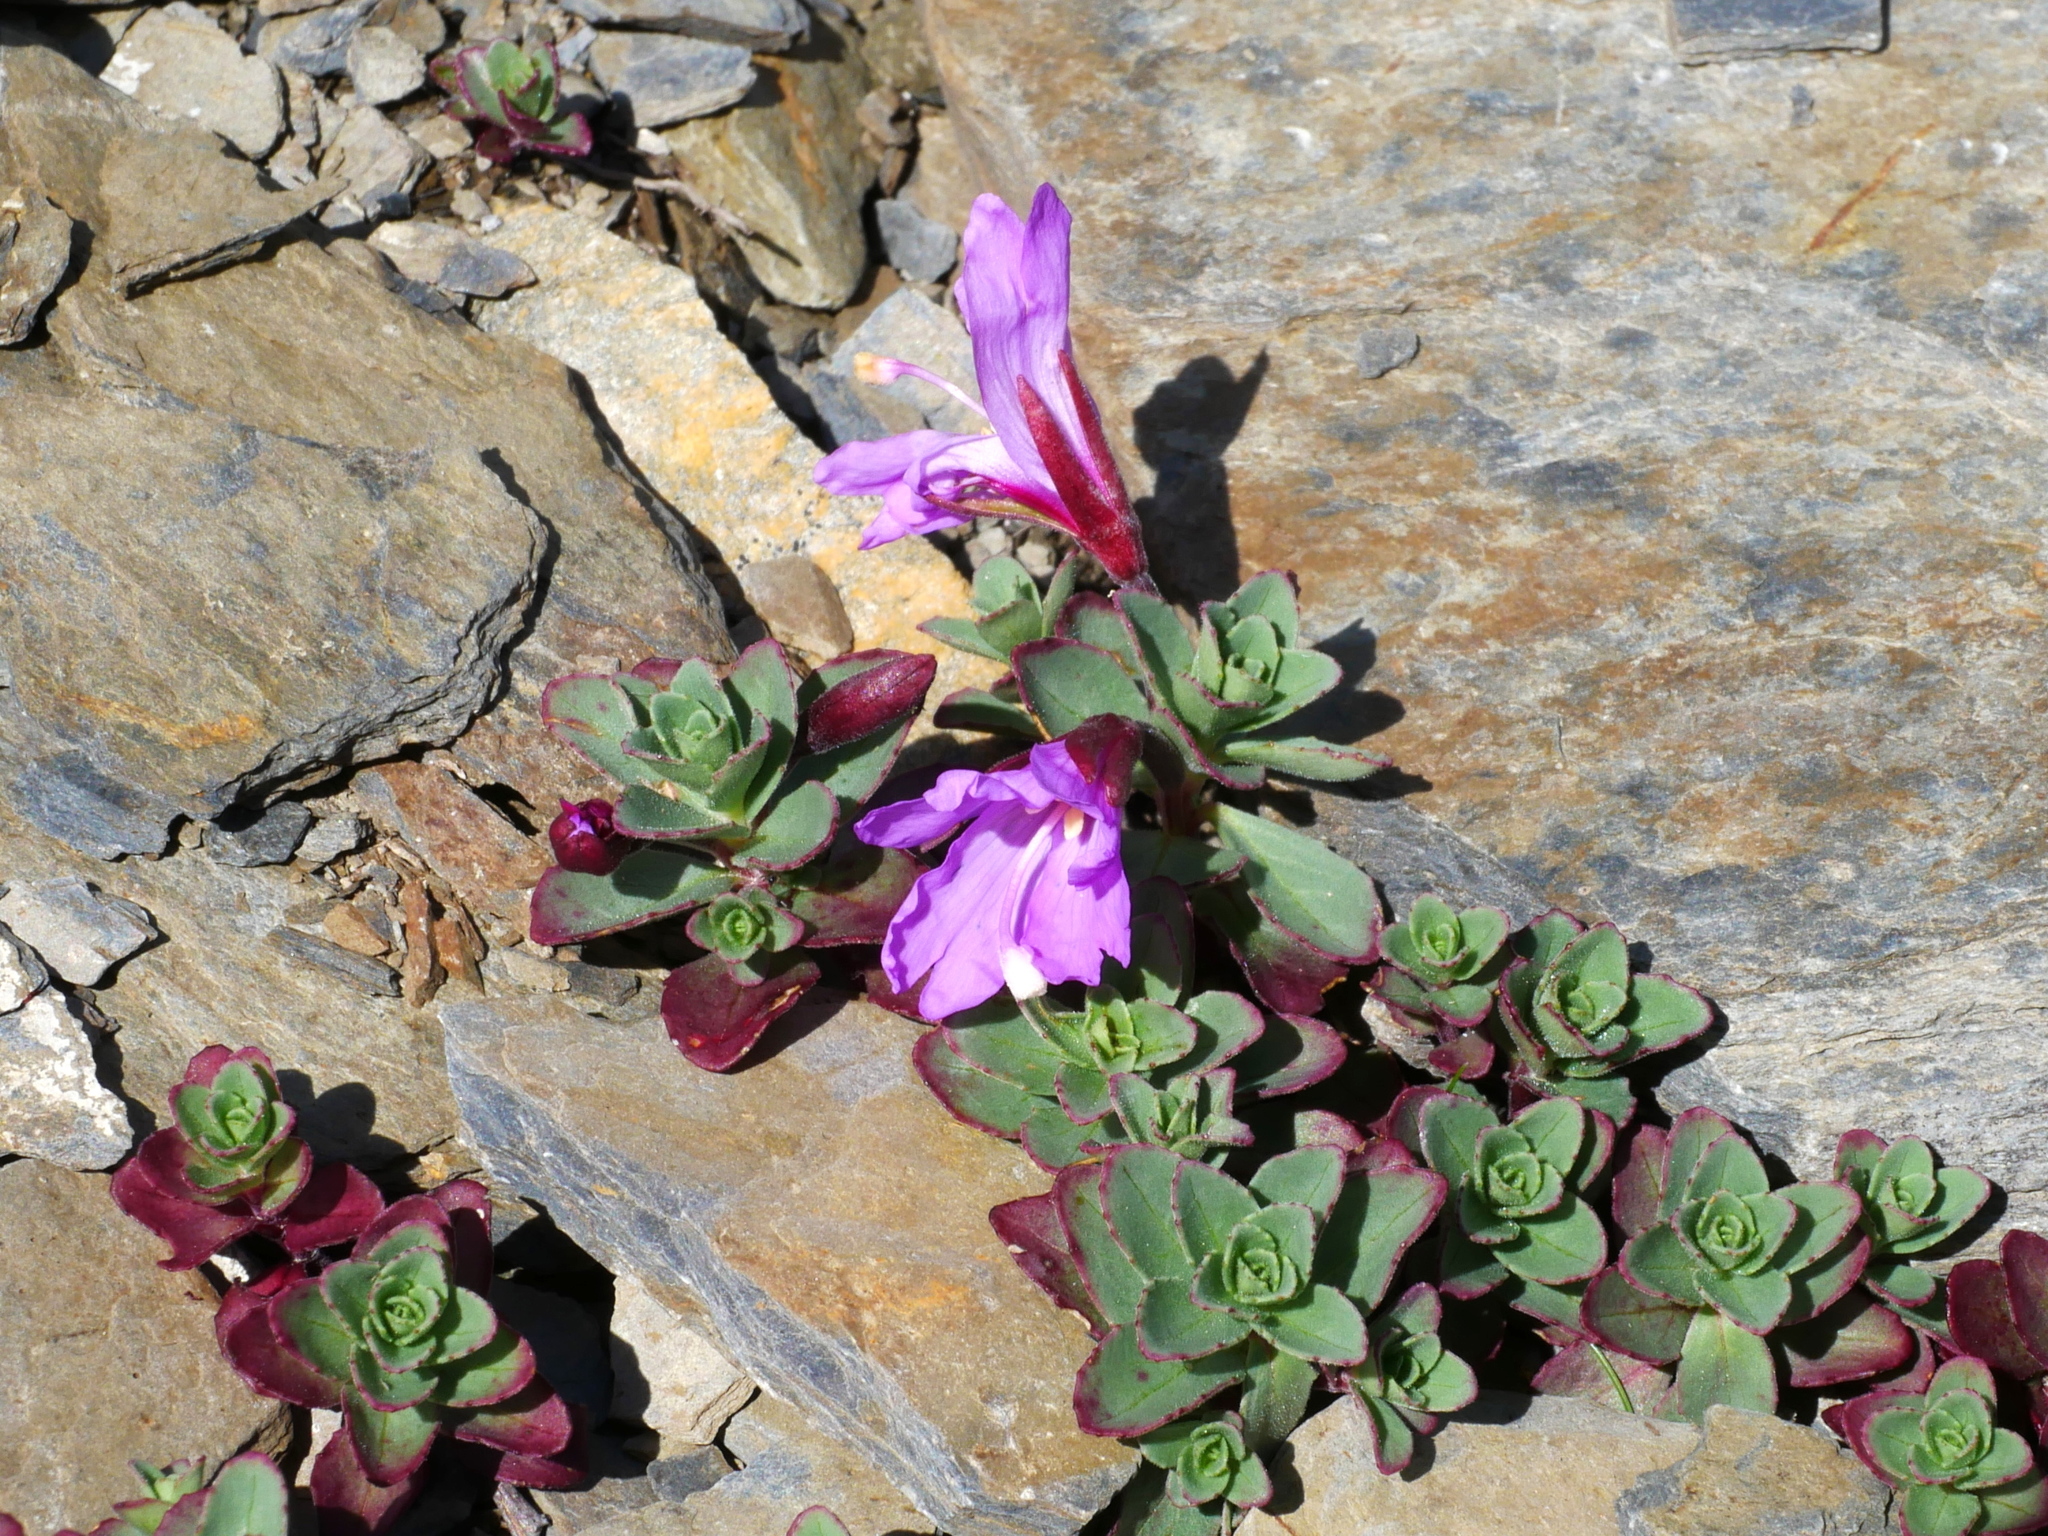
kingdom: Plantae
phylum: Tracheophyta
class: Magnoliopsida
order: Myrtales
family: Onagraceae
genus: Epilobium
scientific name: Epilobium nankotaizanense
